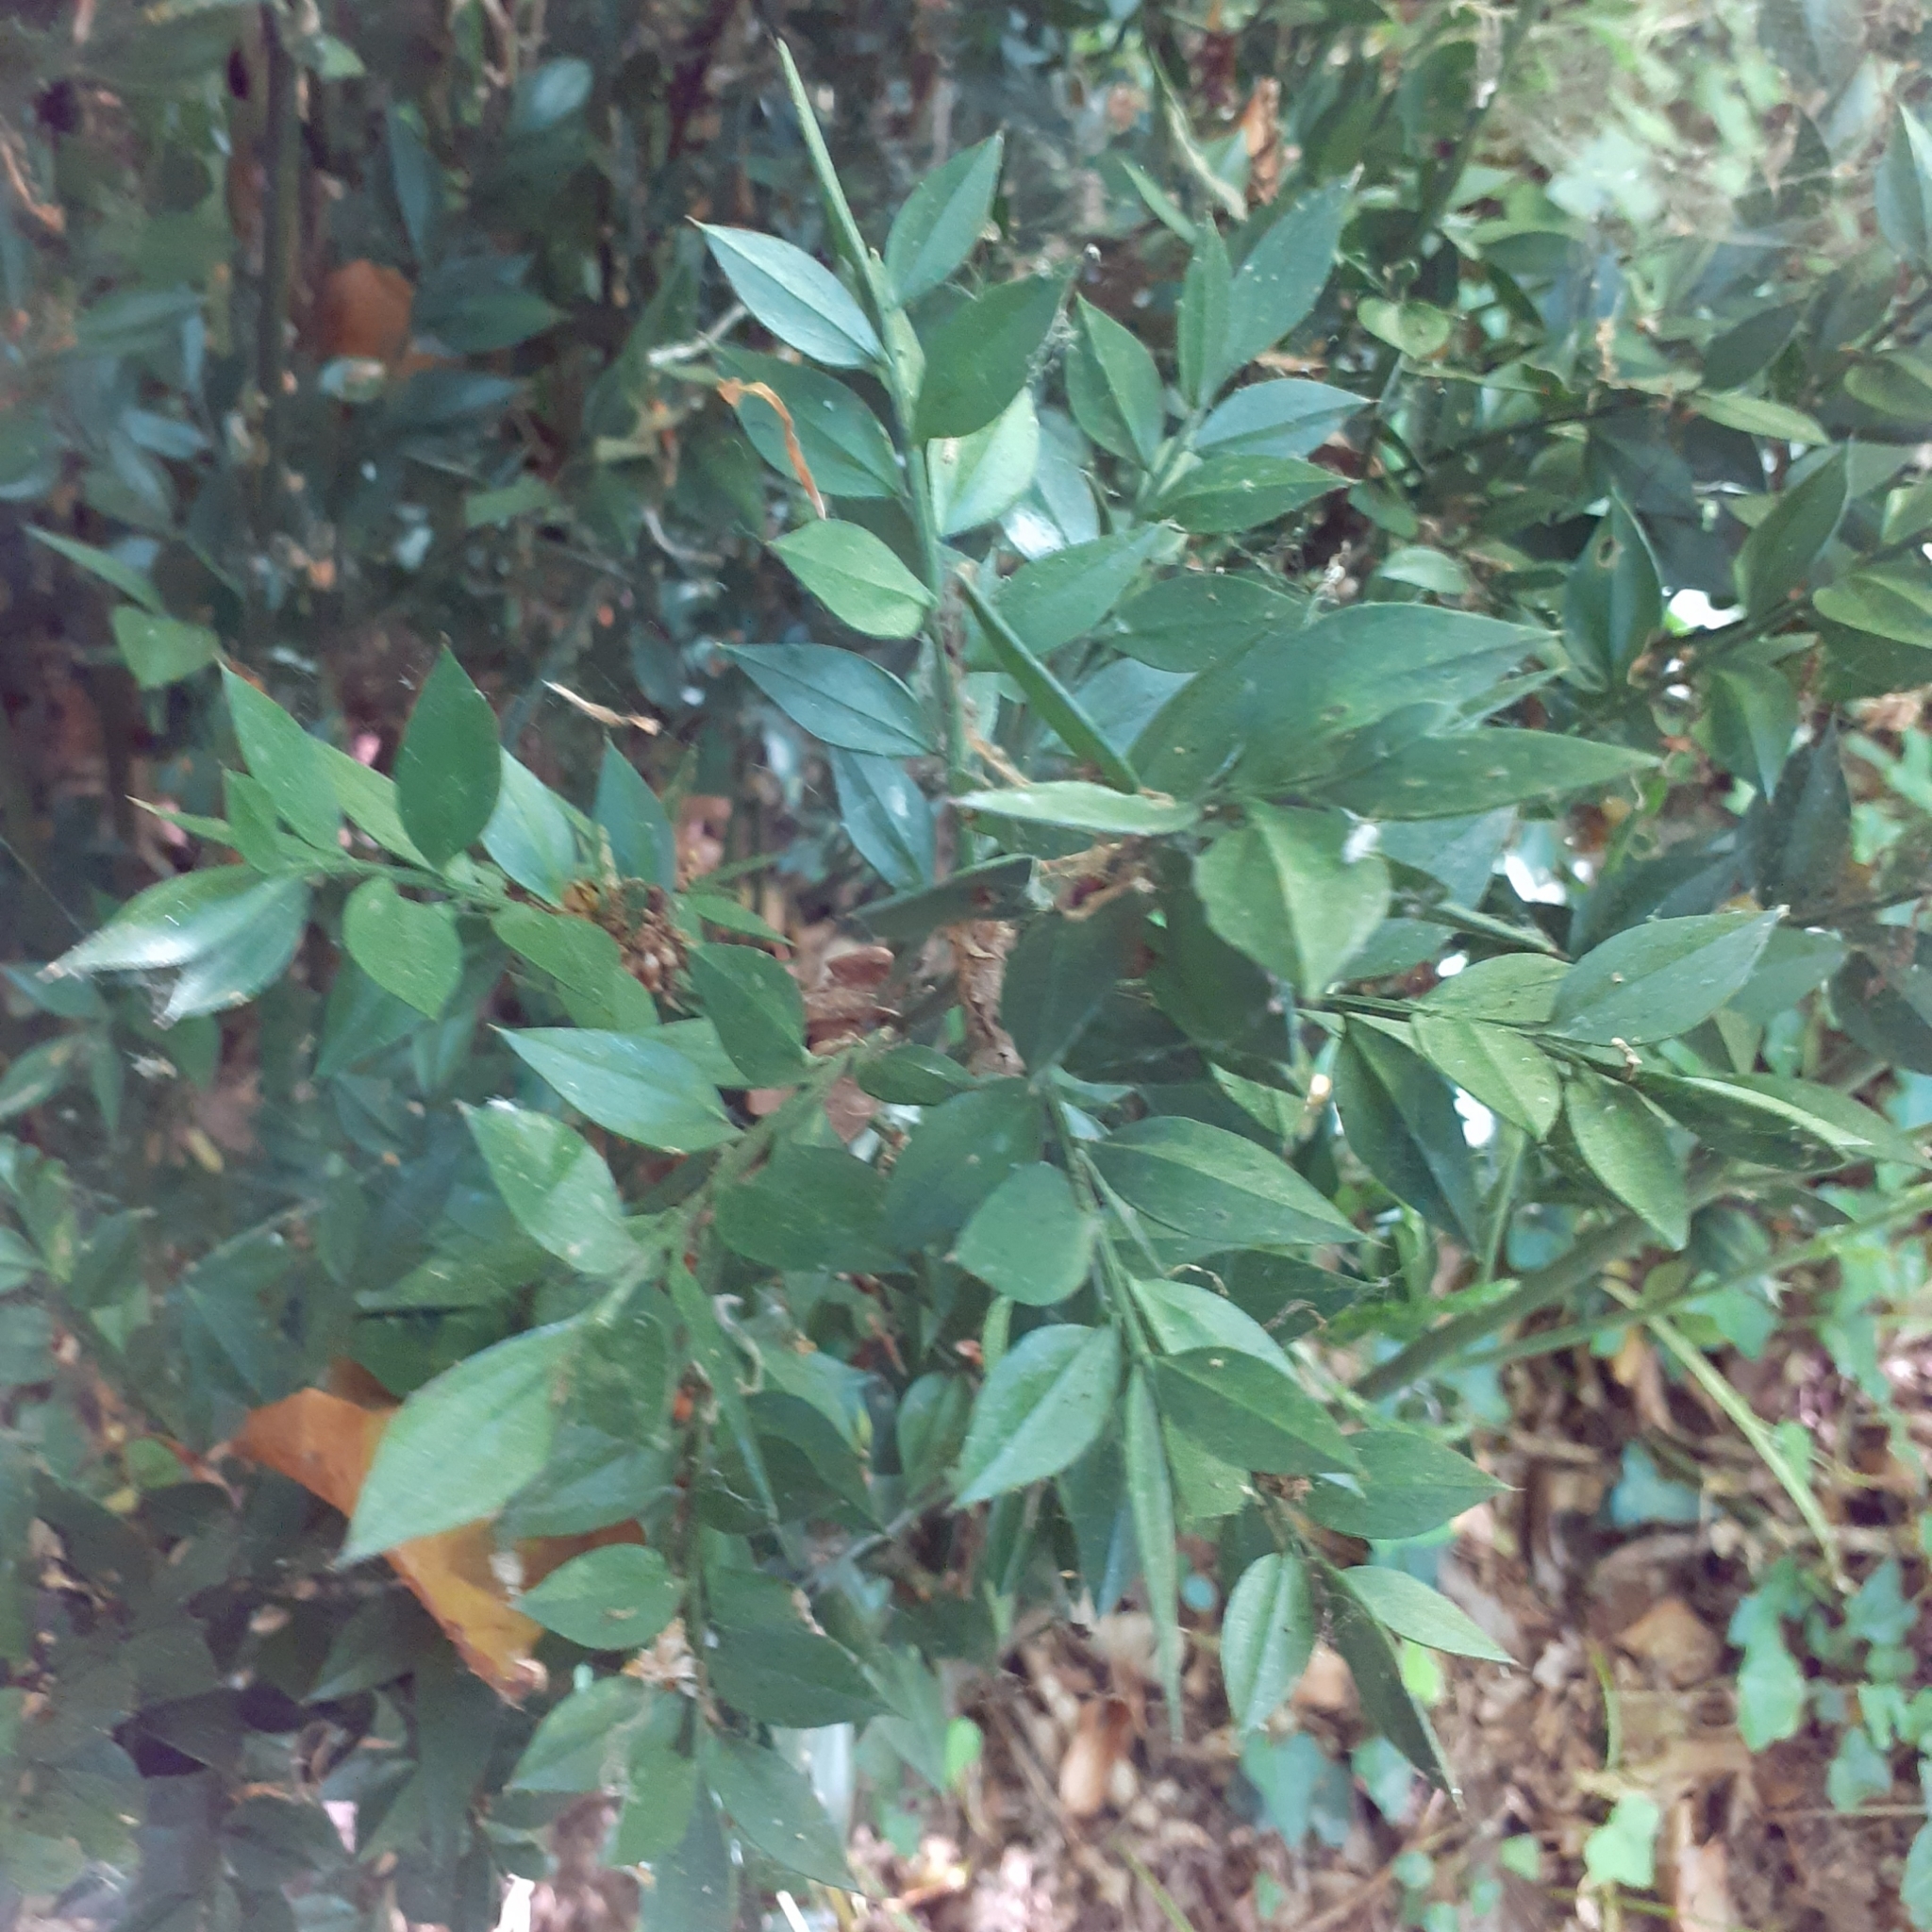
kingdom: Plantae
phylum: Tracheophyta
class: Liliopsida
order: Asparagales
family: Asparagaceae
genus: Ruscus
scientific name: Ruscus aculeatus
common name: Butcher's-broom
